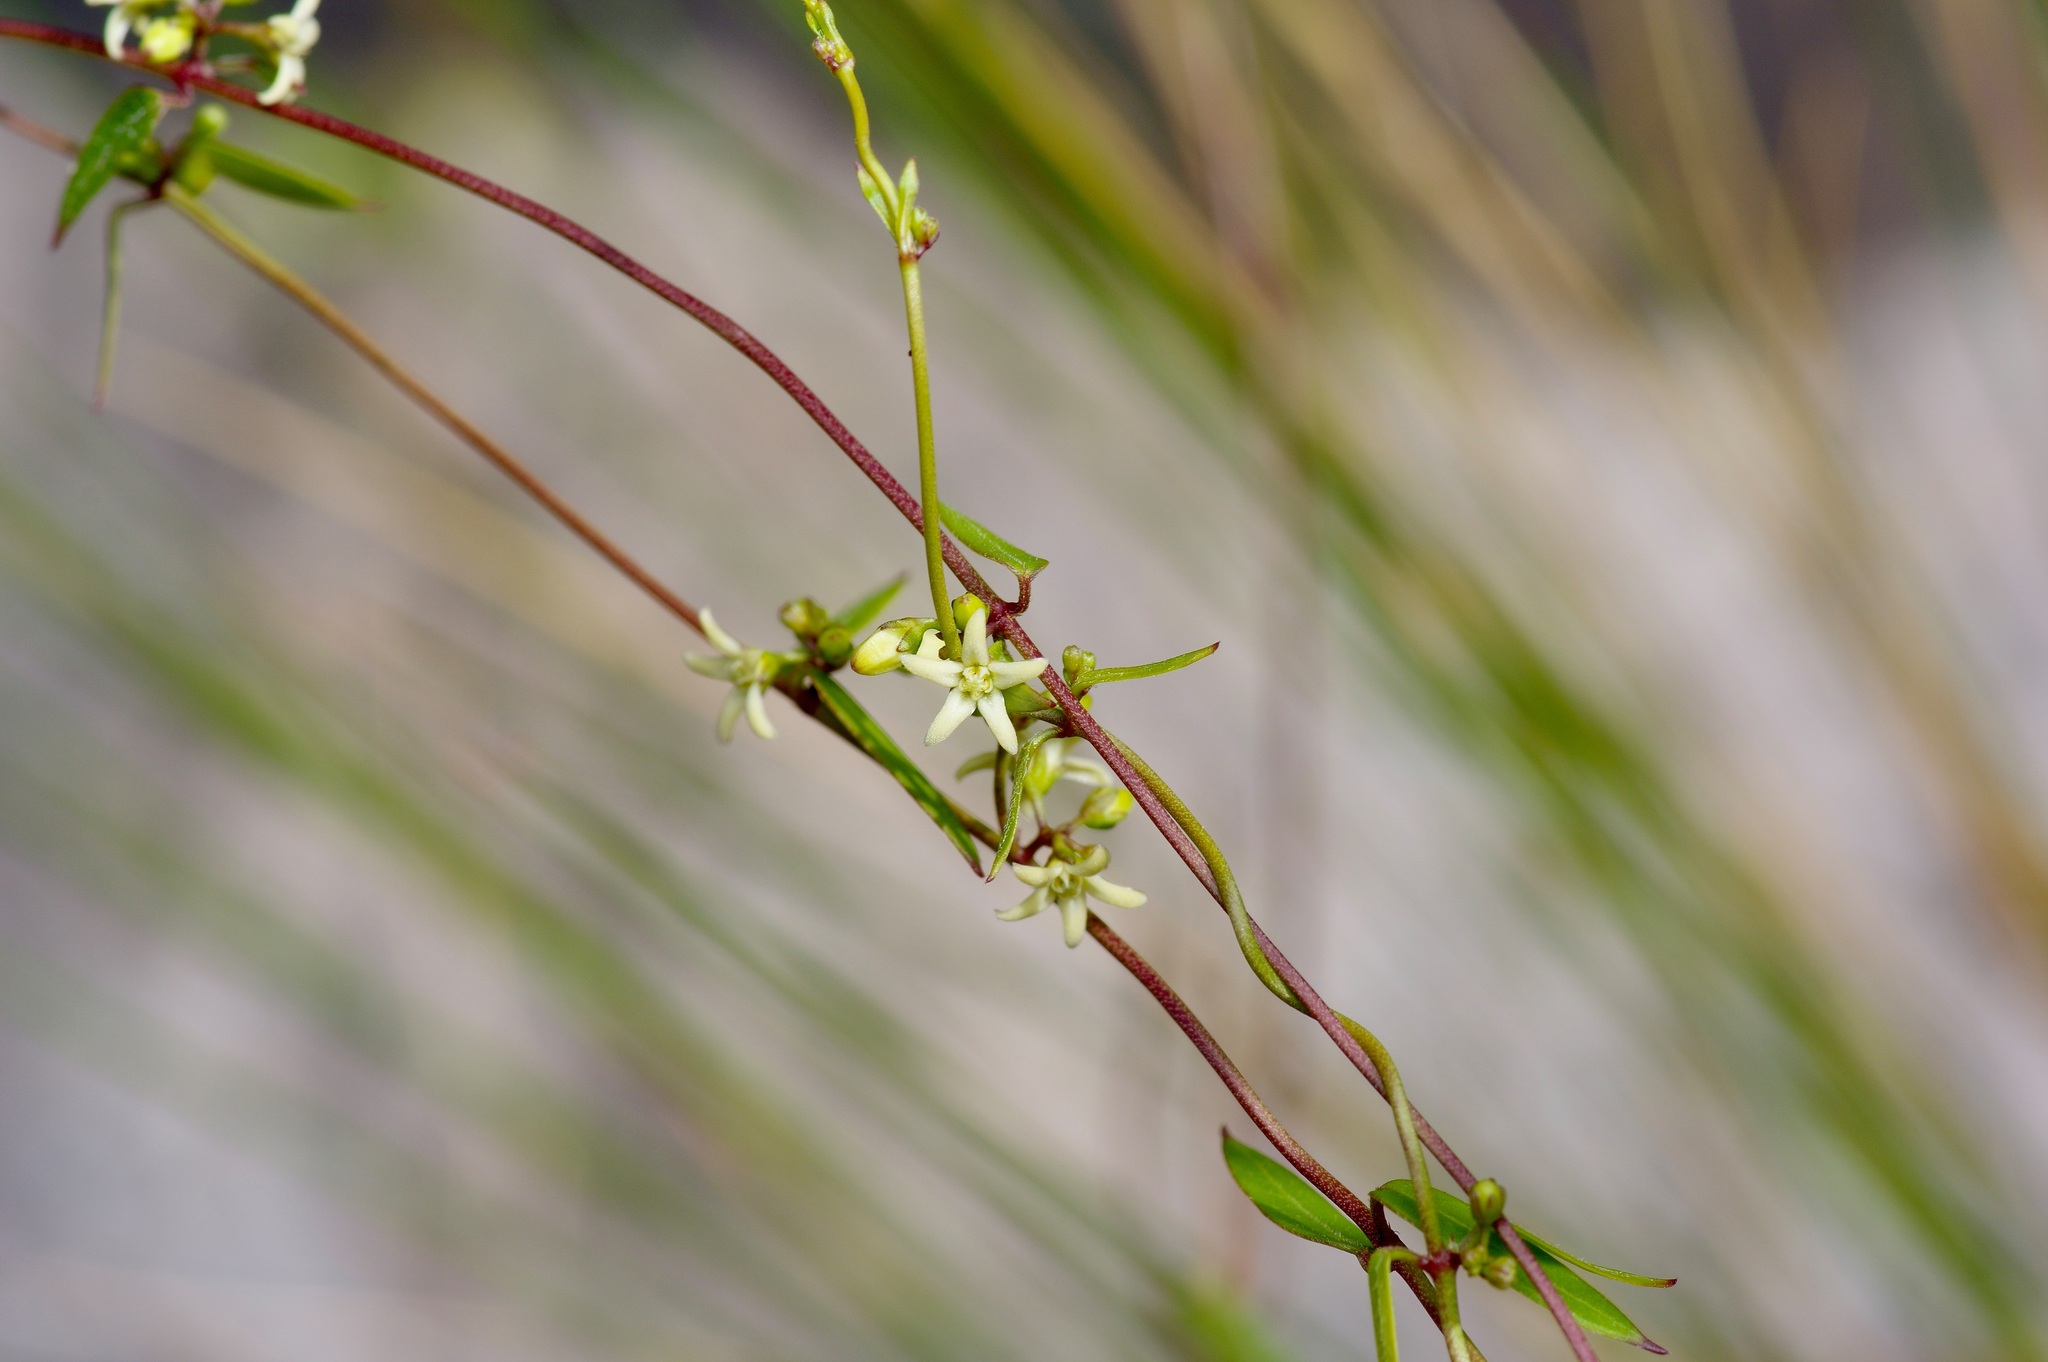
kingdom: Plantae
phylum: Tracheophyta
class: Magnoliopsida
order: Gentianales
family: Apocynaceae
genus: Metastelma
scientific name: Metastelma palmeri
